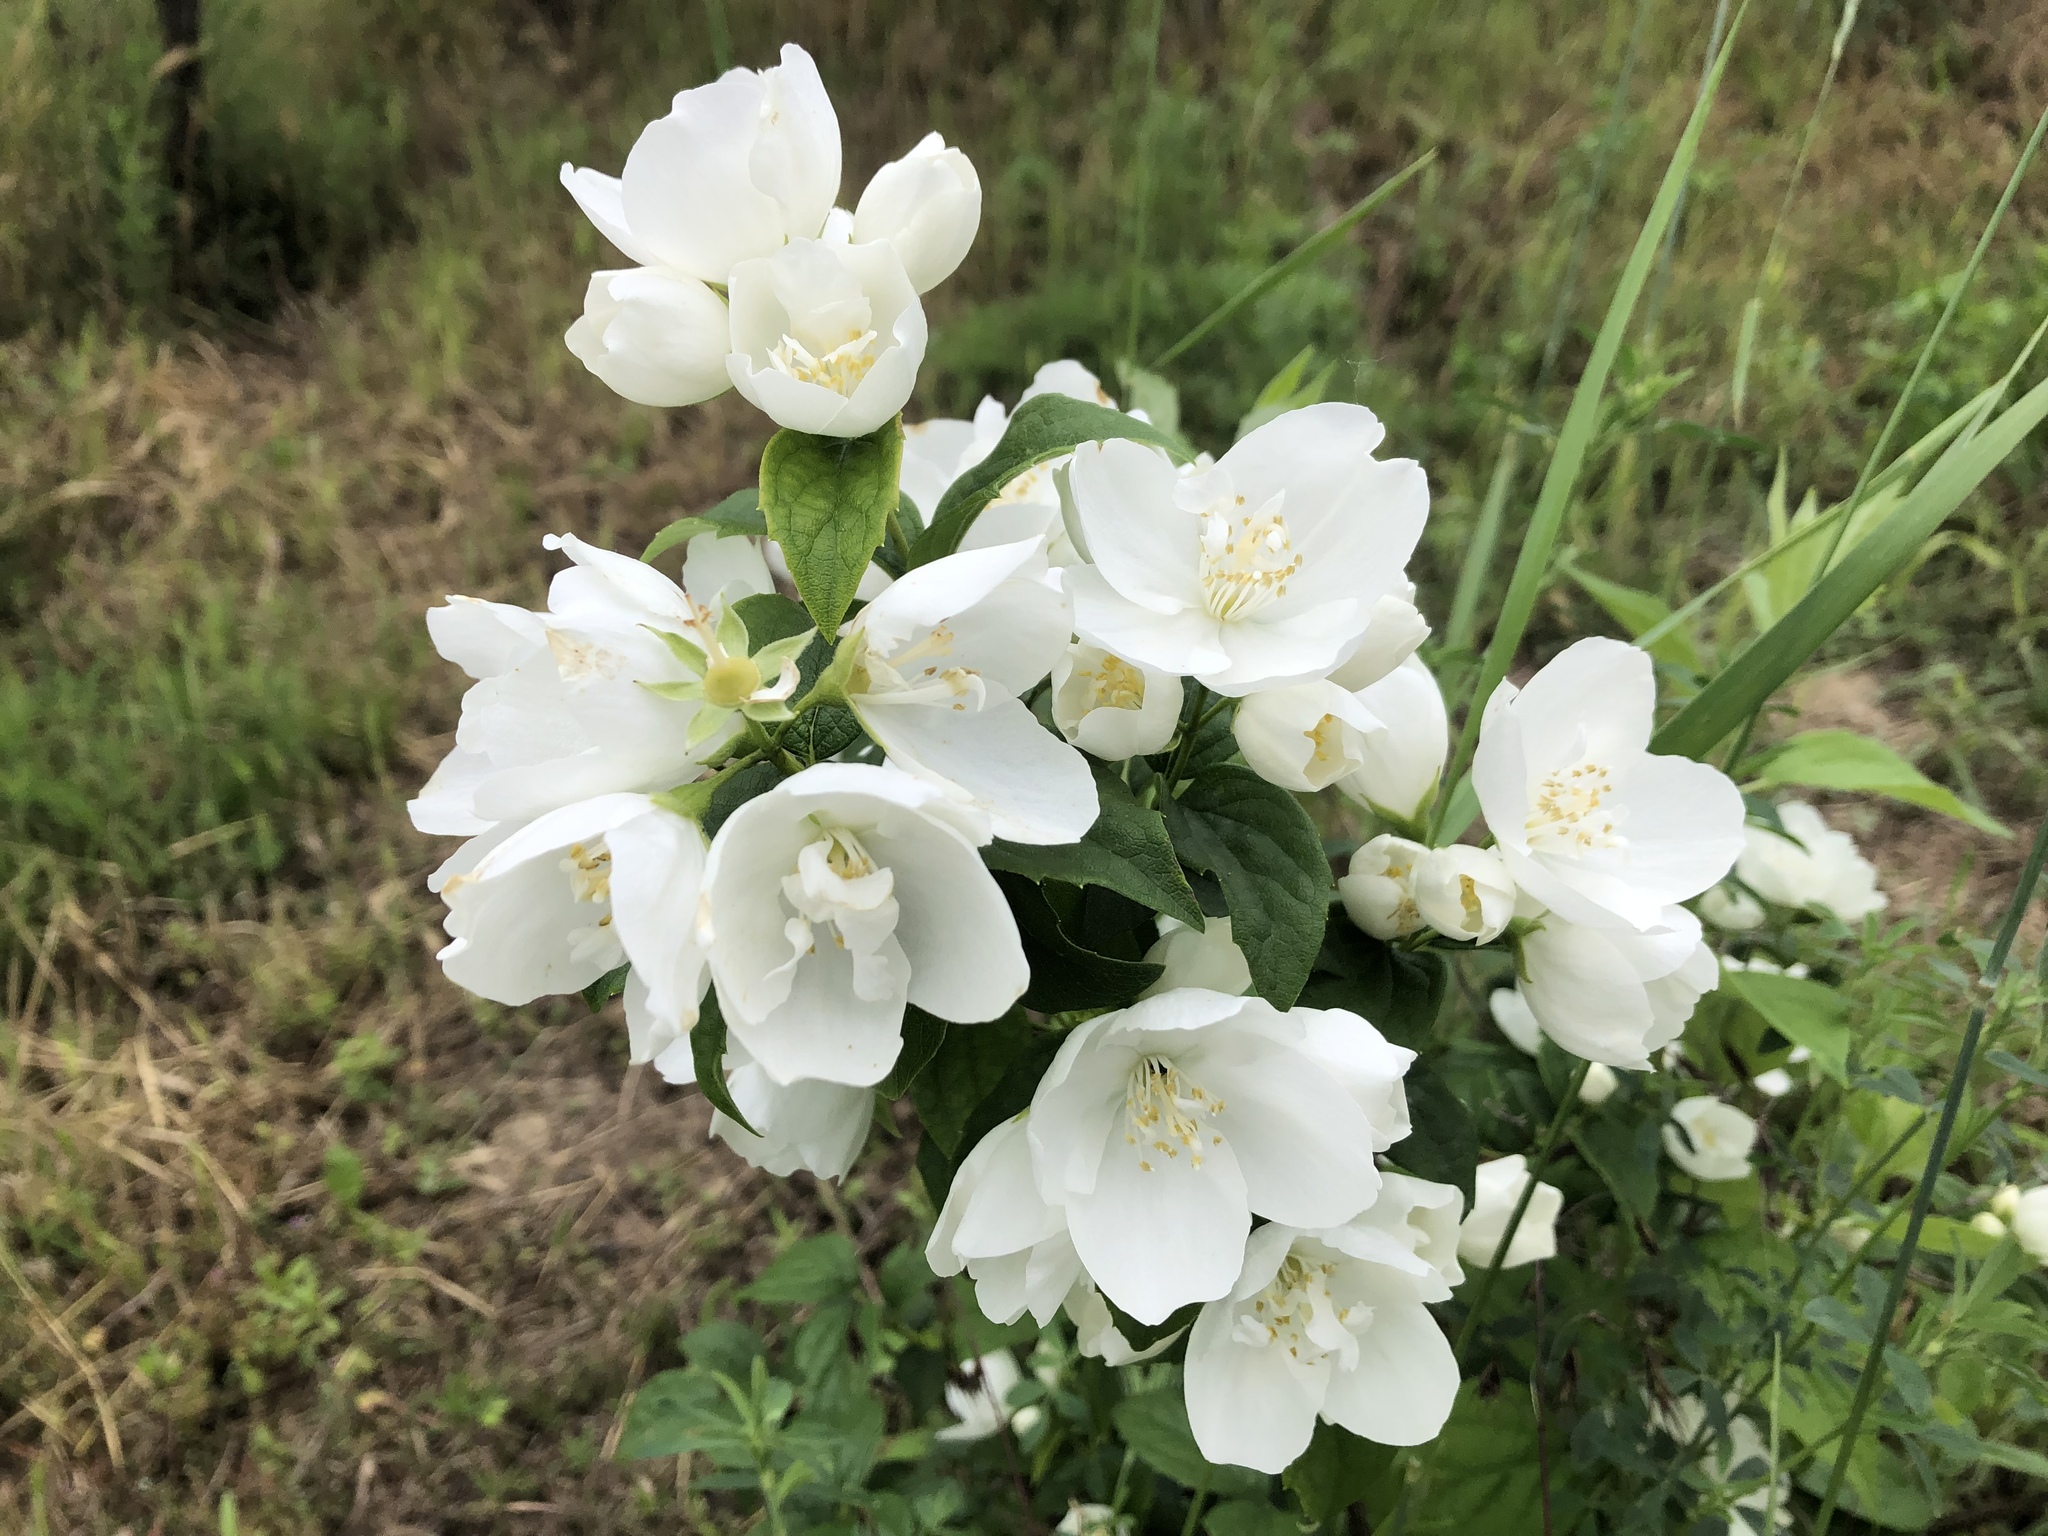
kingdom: Plantae
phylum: Tracheophyta
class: Magnoliopsida
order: Cornales
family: Hydrangeaceae
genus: Philadelphus
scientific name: Philadelphus coronarius
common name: Mock orange
